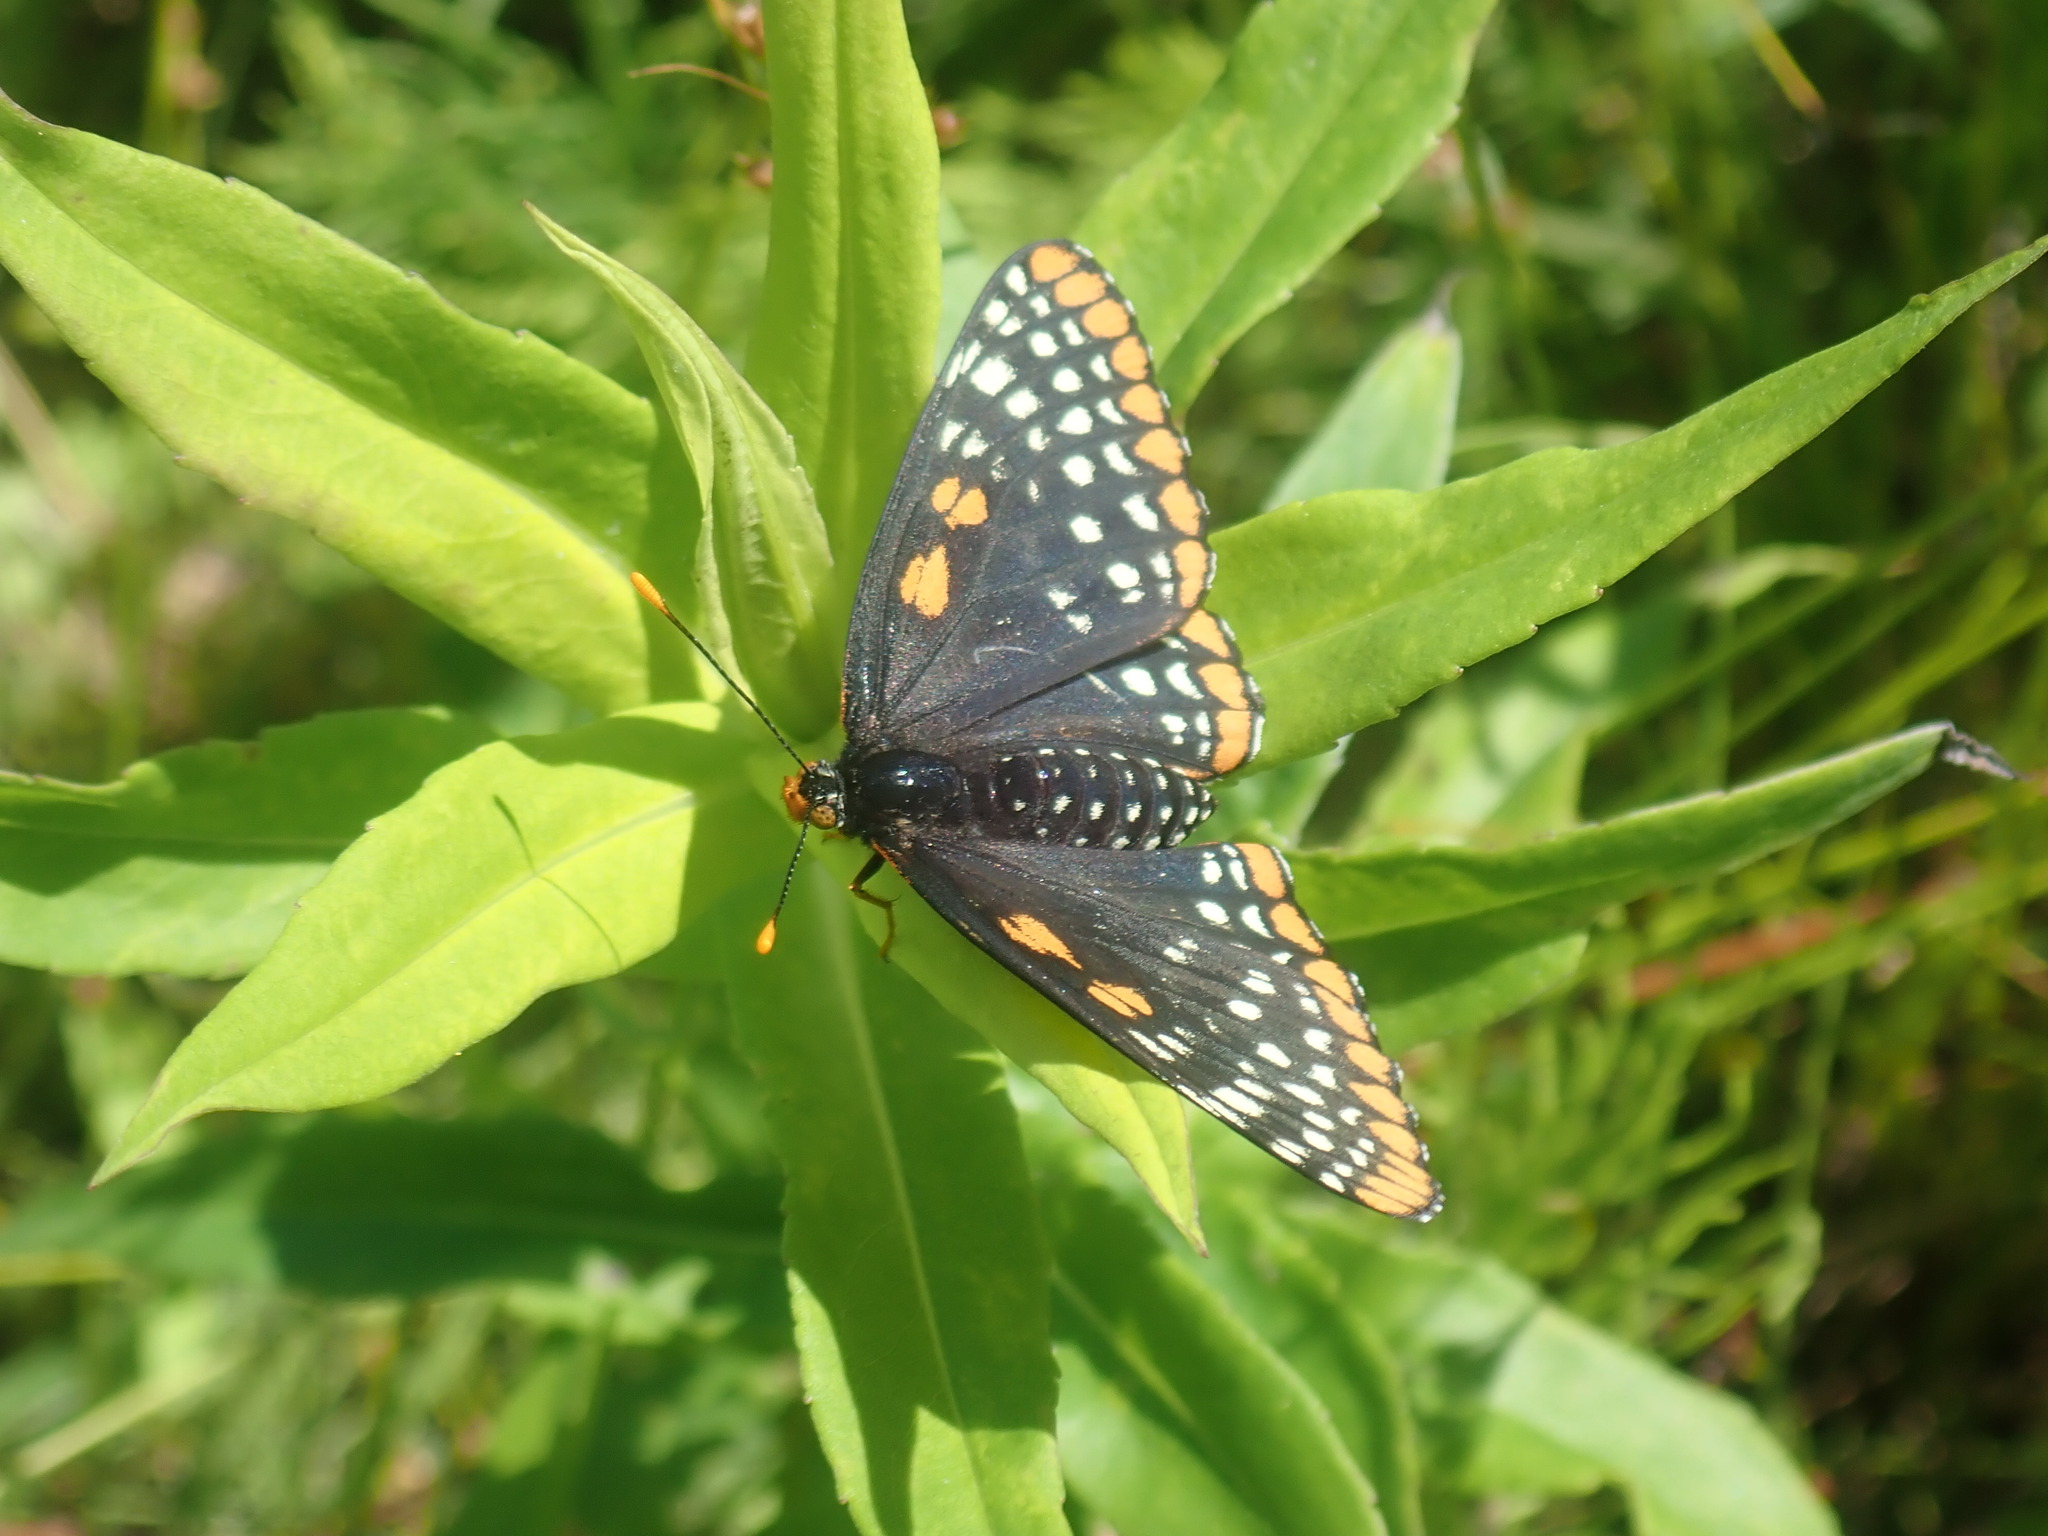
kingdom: Animalia
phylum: Arthropoda
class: Insecta
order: Lepidoptera
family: Nymphalidae
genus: Euphydryas
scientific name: Euphydryas phaeton
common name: Baltimore checkerspot
